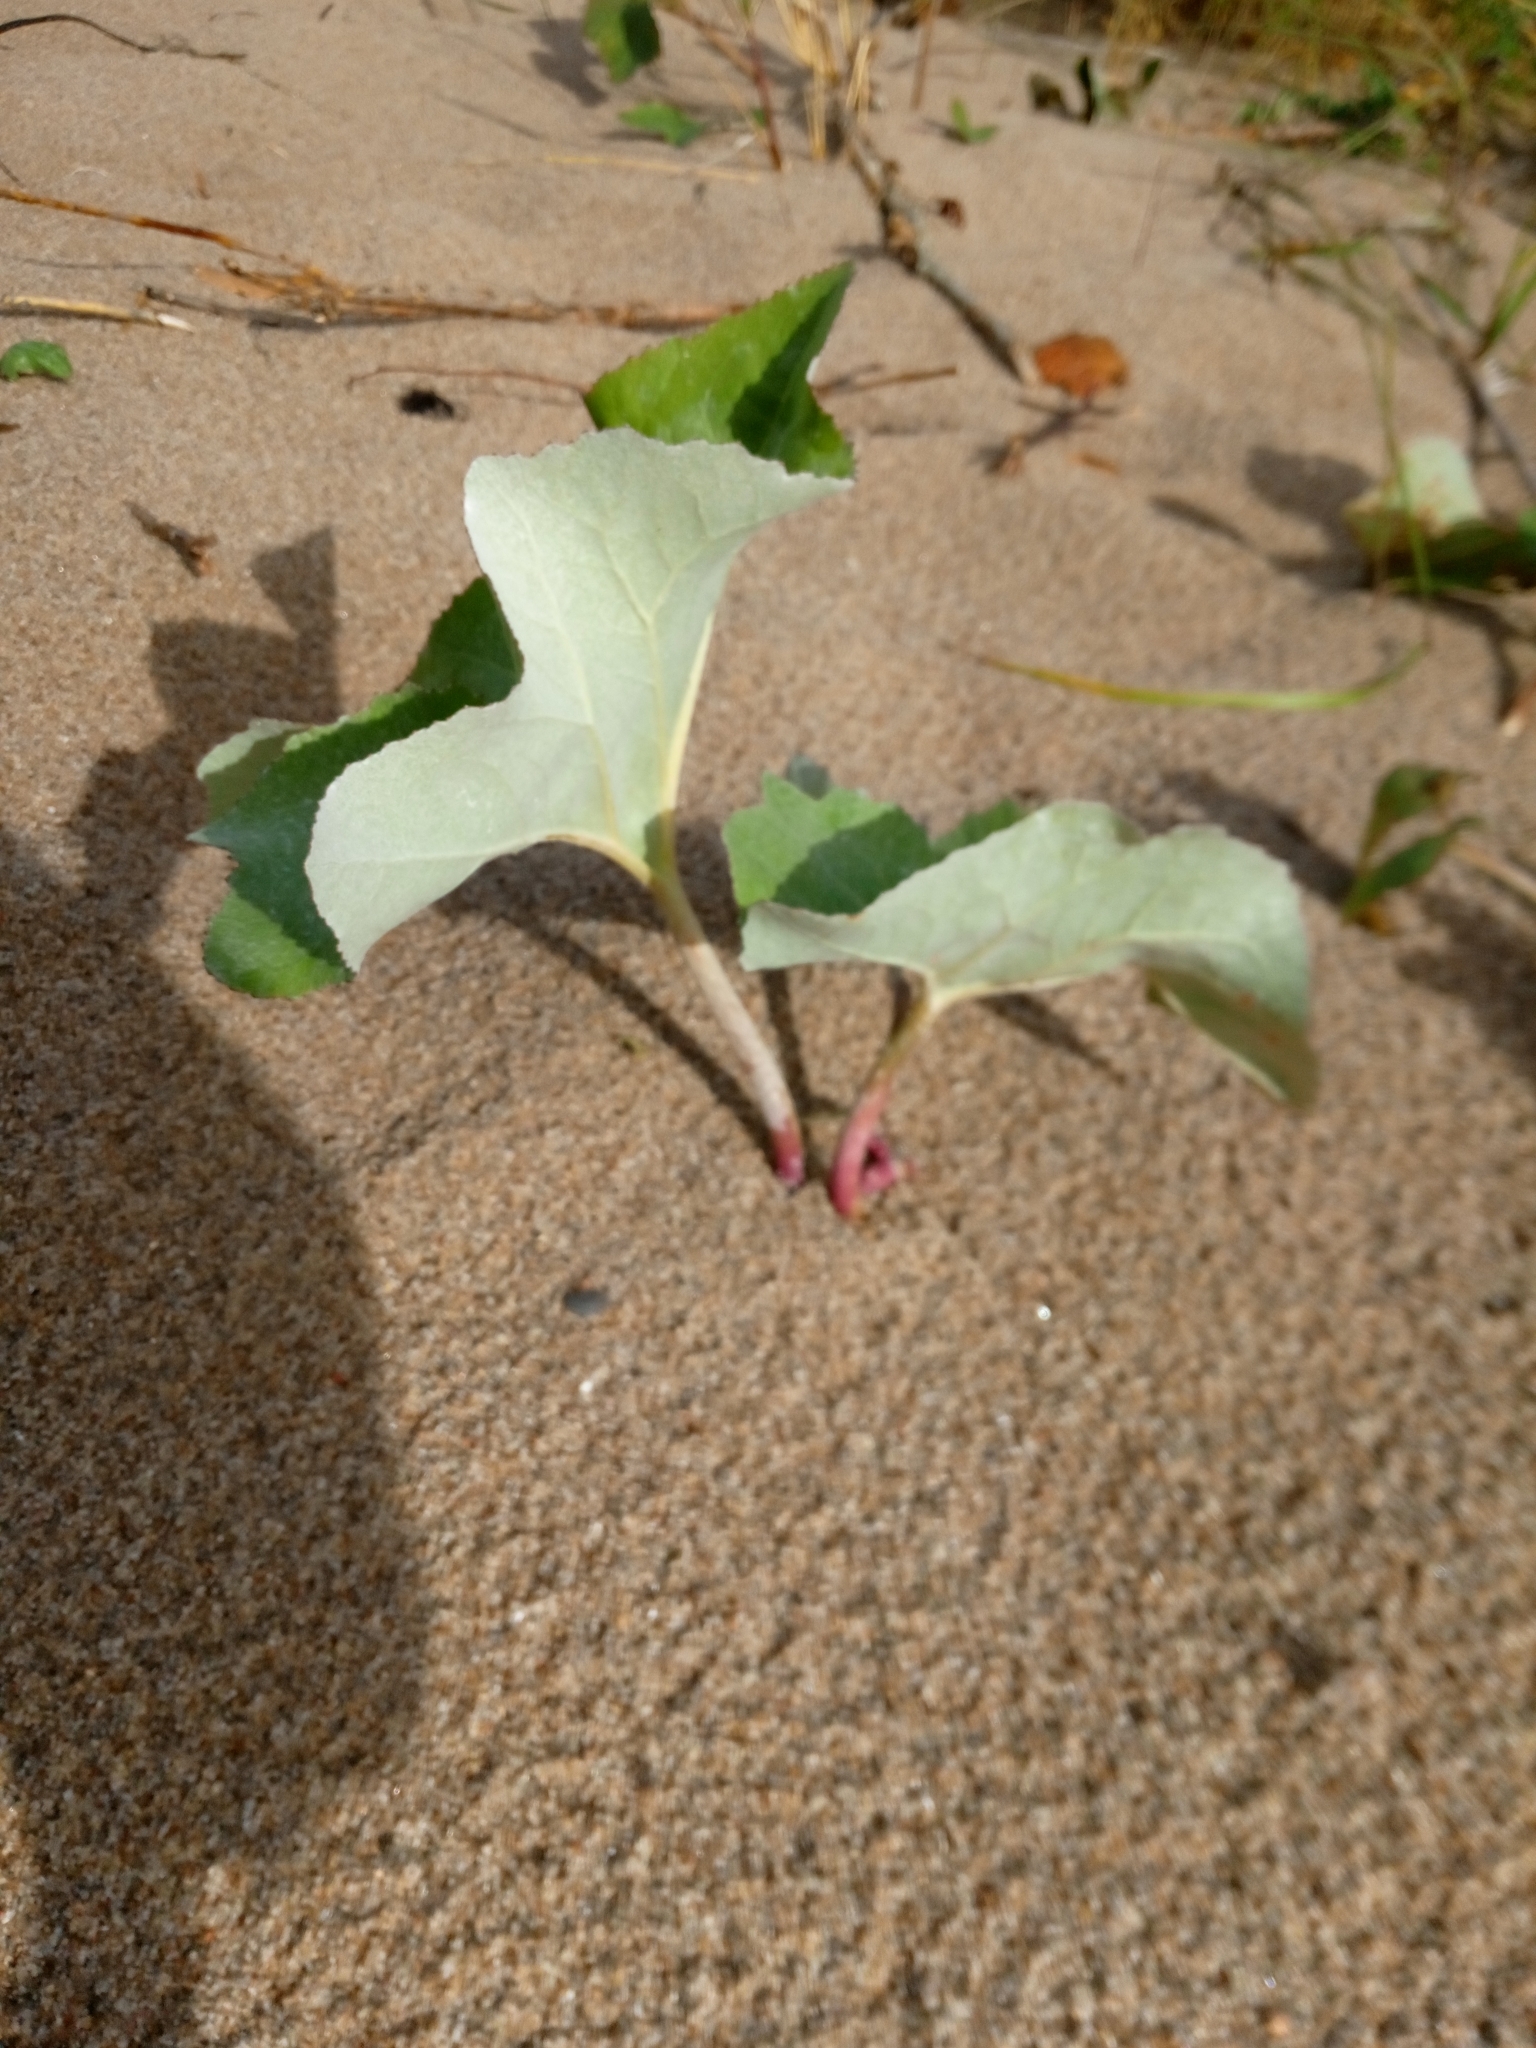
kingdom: Plantae
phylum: Tracheophyta
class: Magnoliopsida
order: Asterales
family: Asteraceae
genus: Petasites
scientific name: Petasites spurius
